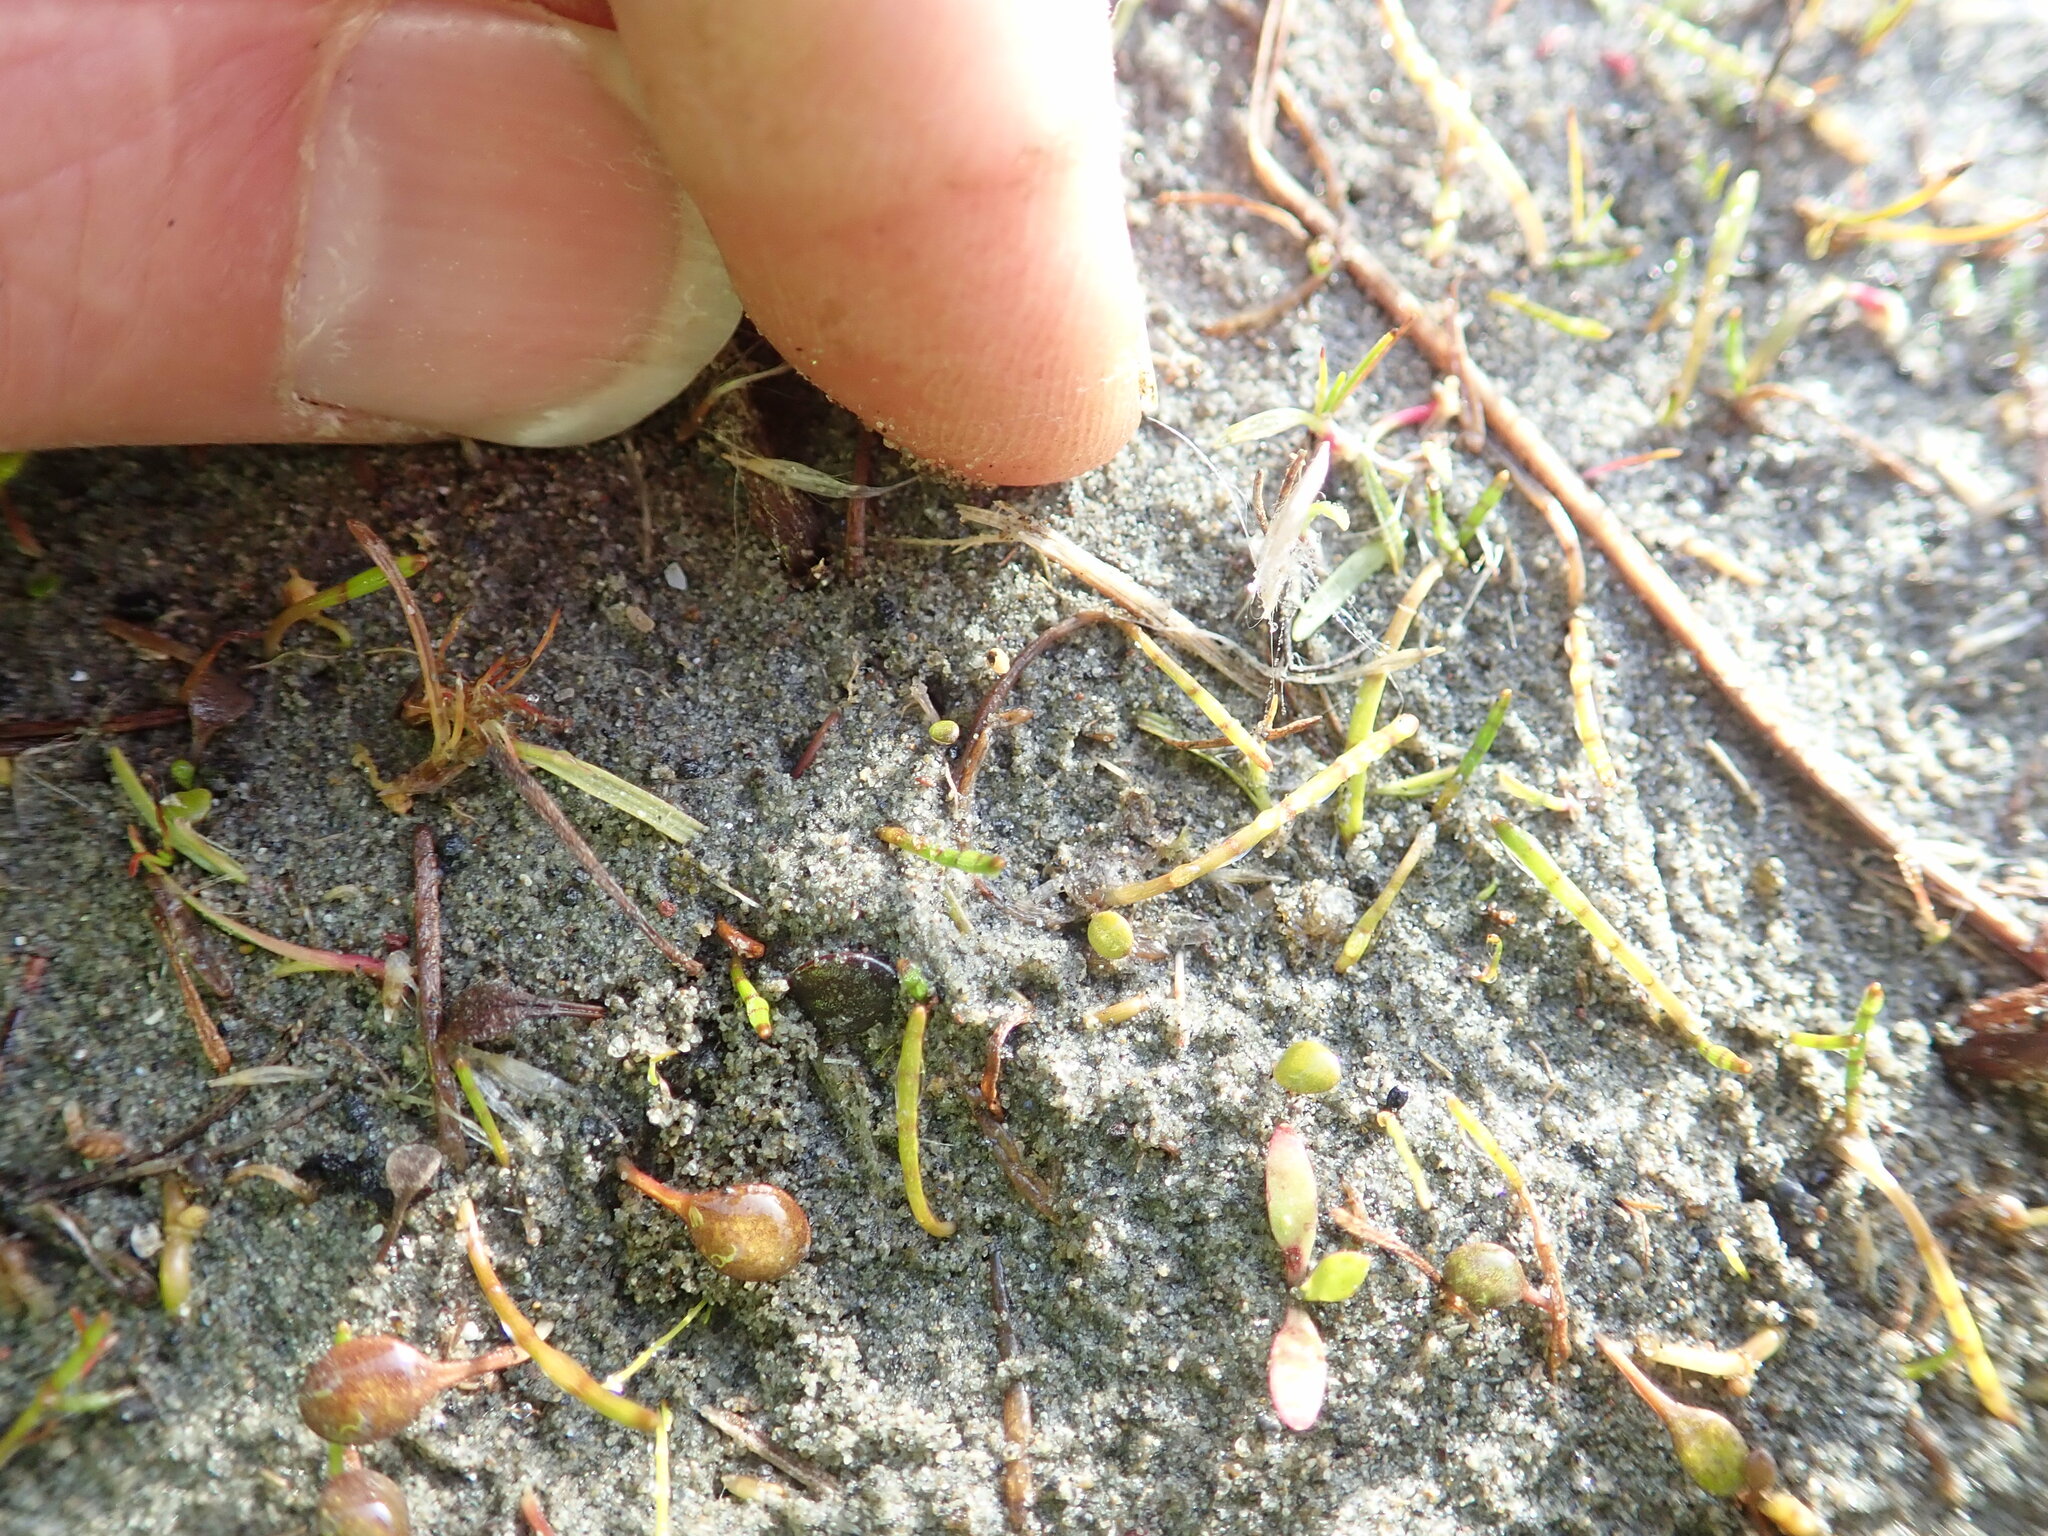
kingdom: Plantae
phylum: Tracheophyta
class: Magnoliopsida
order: Apiales
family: Apiaceae
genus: Lilaeopsis
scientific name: Lilaeopsis novae-zelandiae
